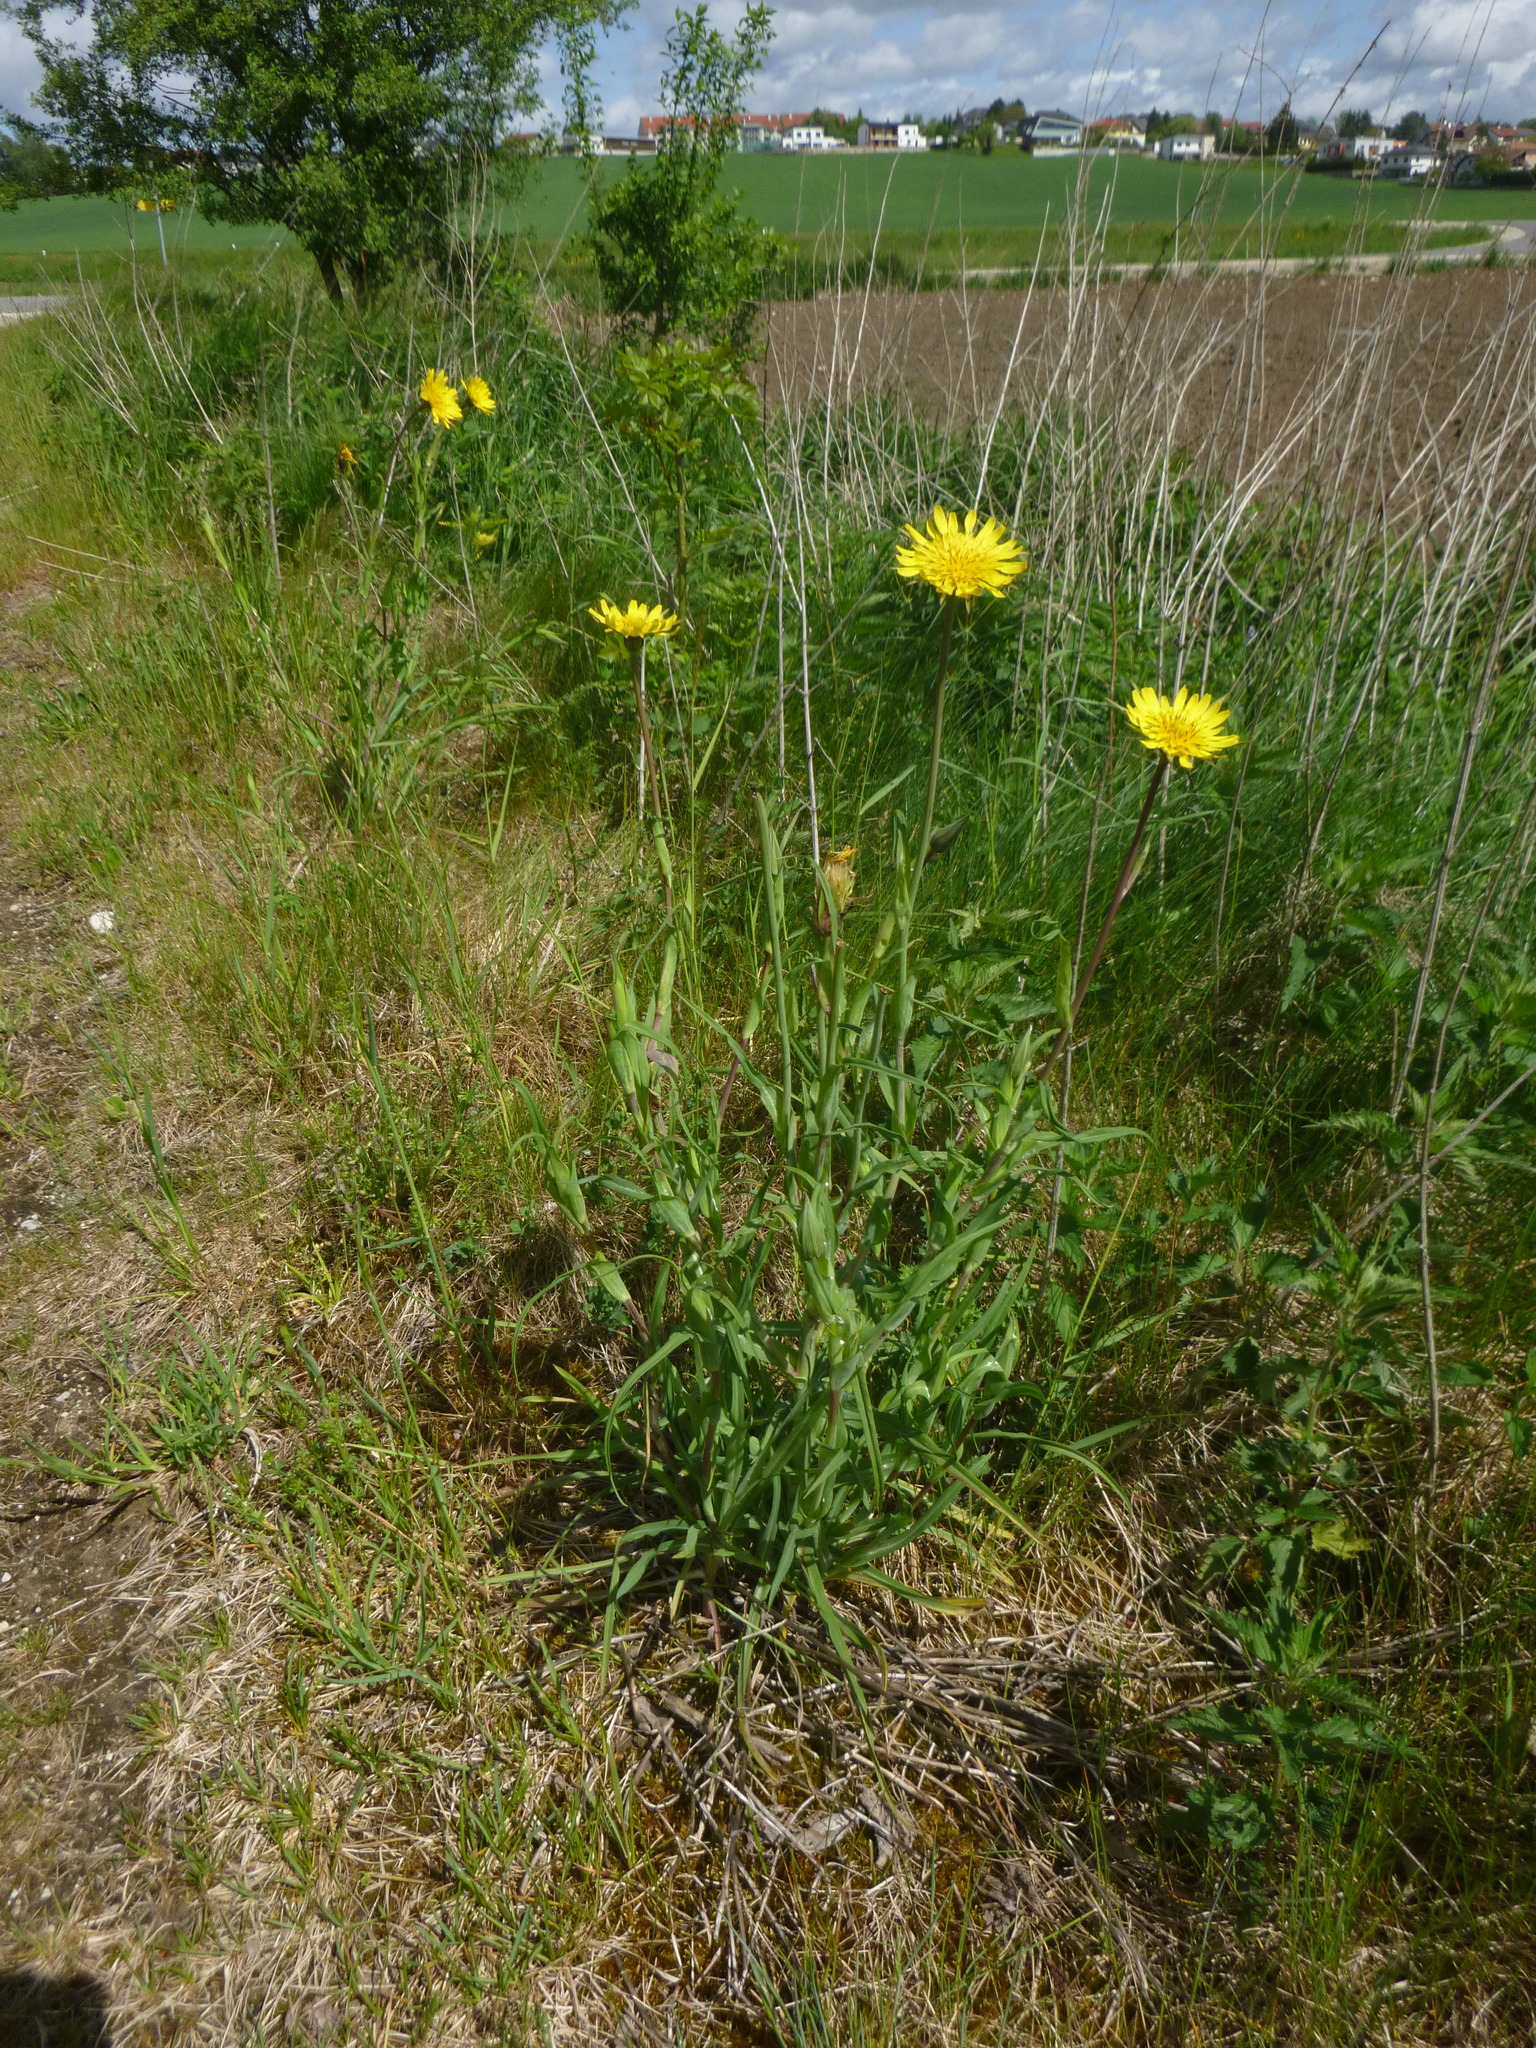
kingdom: Plantae
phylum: Tracheophyta
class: Magnoliopsida
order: Asterales
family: Asteraceae
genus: Tragopogon
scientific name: Tragopogon orientalis
